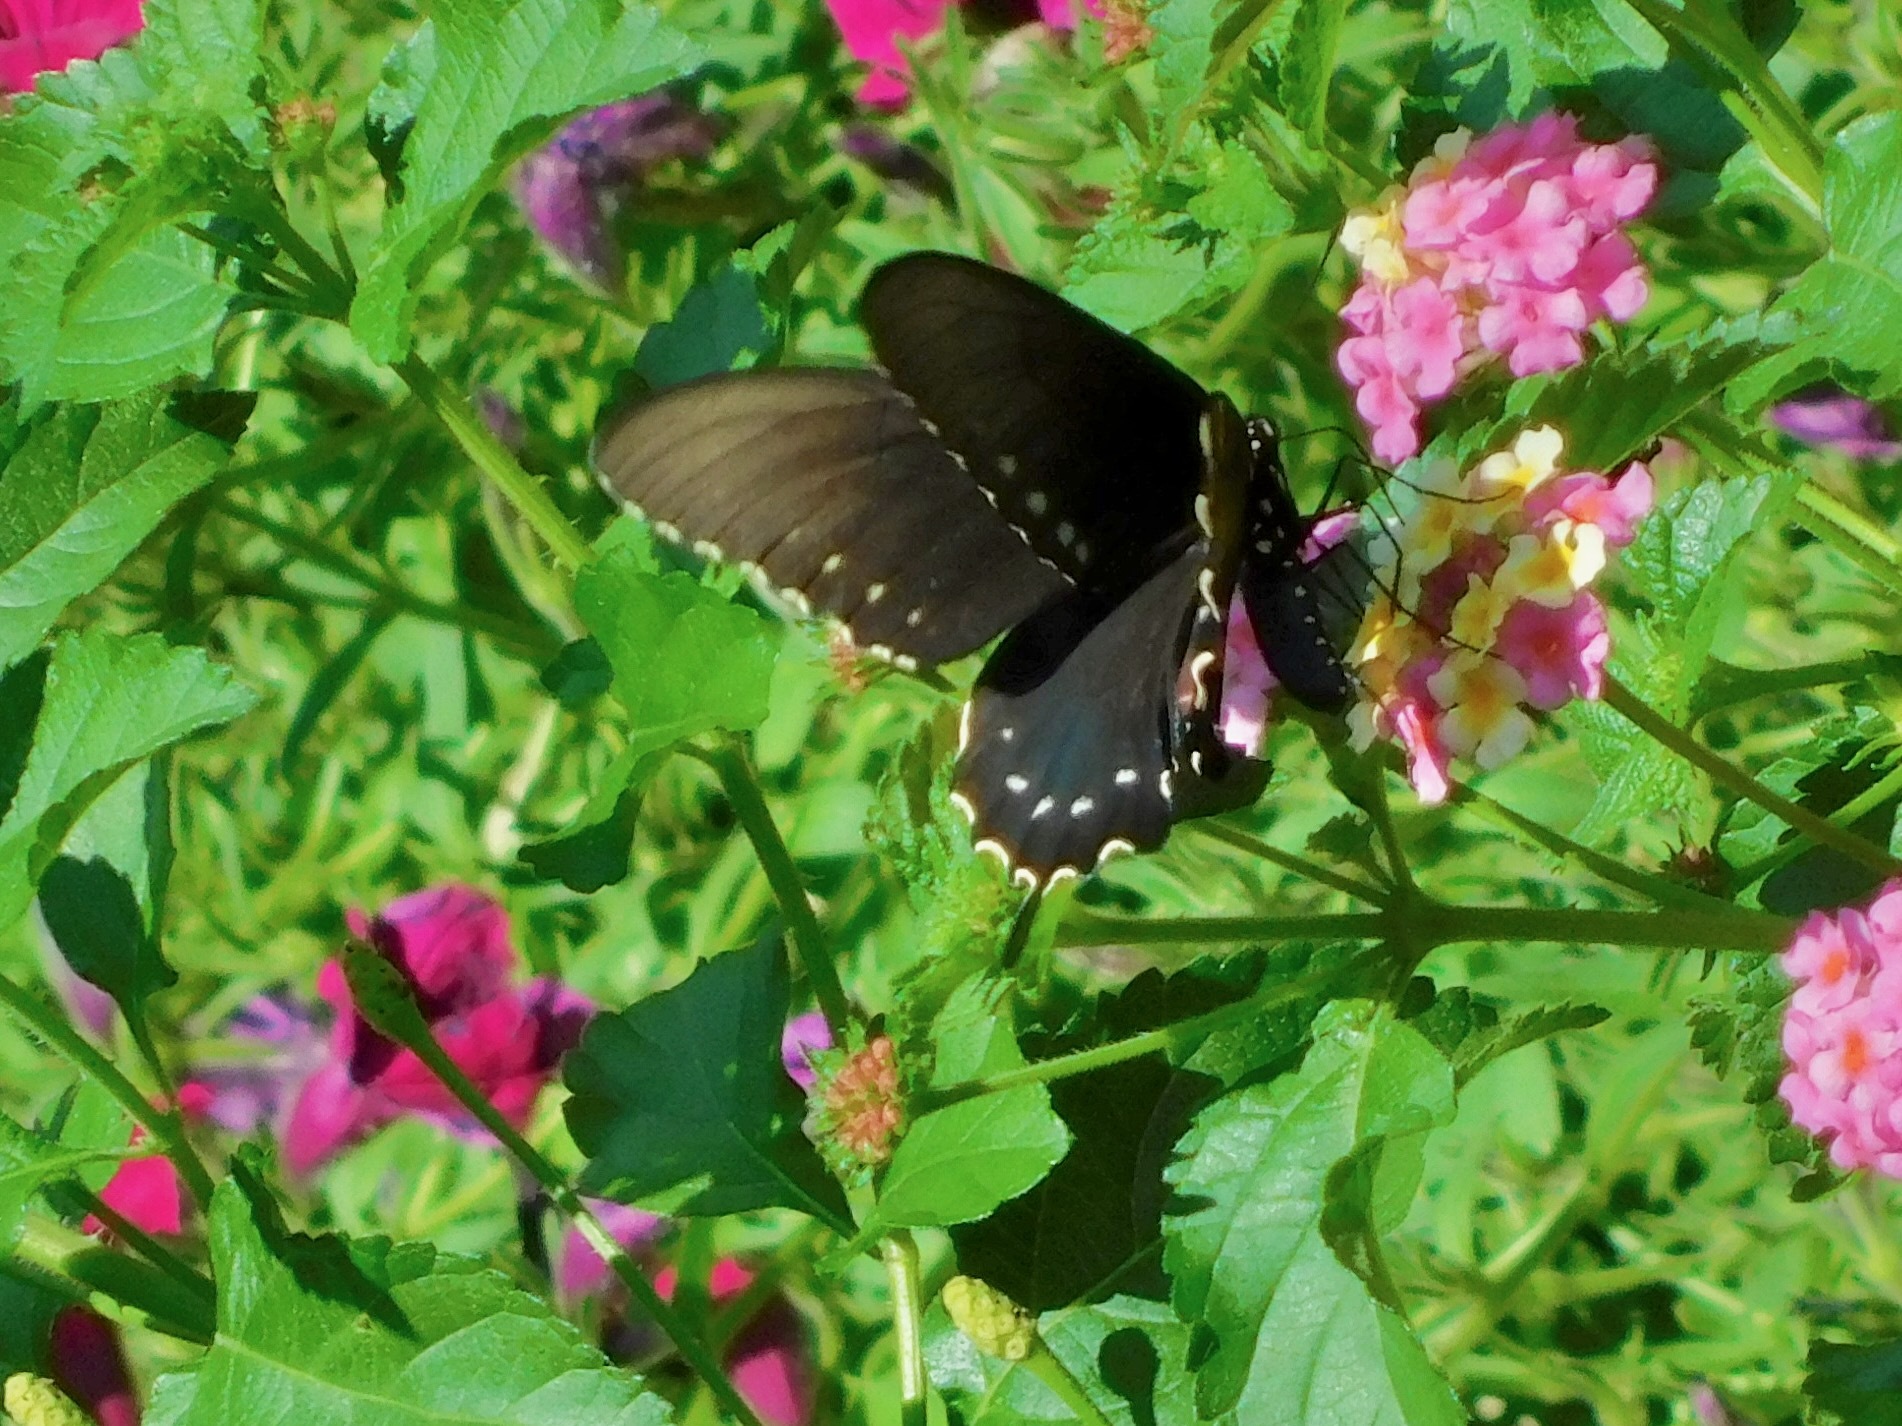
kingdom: Animalia
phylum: Arthropoda
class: Insecta
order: Lepidoptera
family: Papilionidae
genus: Battus
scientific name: Battus philenor
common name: Pipevine swallowtail
